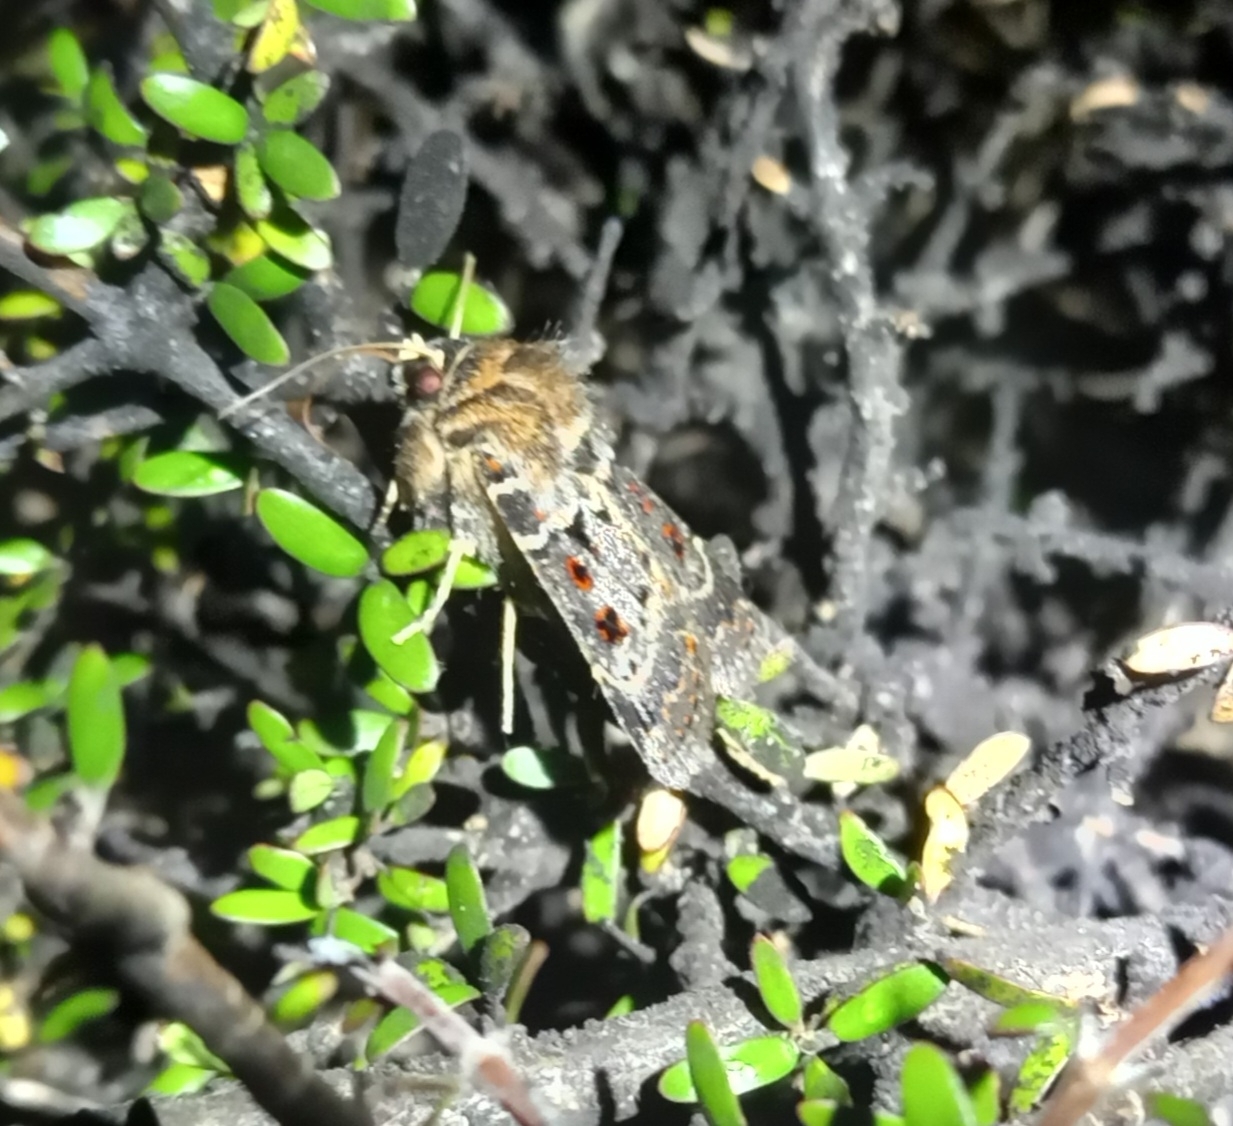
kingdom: Animalia
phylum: Arthropoda
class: Insecta
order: Lepidoptera
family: Noctuidae
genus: Proteuxoa
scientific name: Proteuxoa sanguinipuncta
